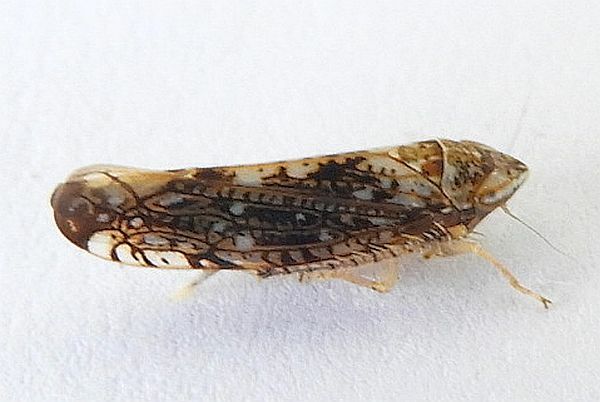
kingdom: Animalia
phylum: Arthropoda
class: Insecta
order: Hemiptera
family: Cicadellidae
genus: Prescottia
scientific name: Prescottia brickellia
